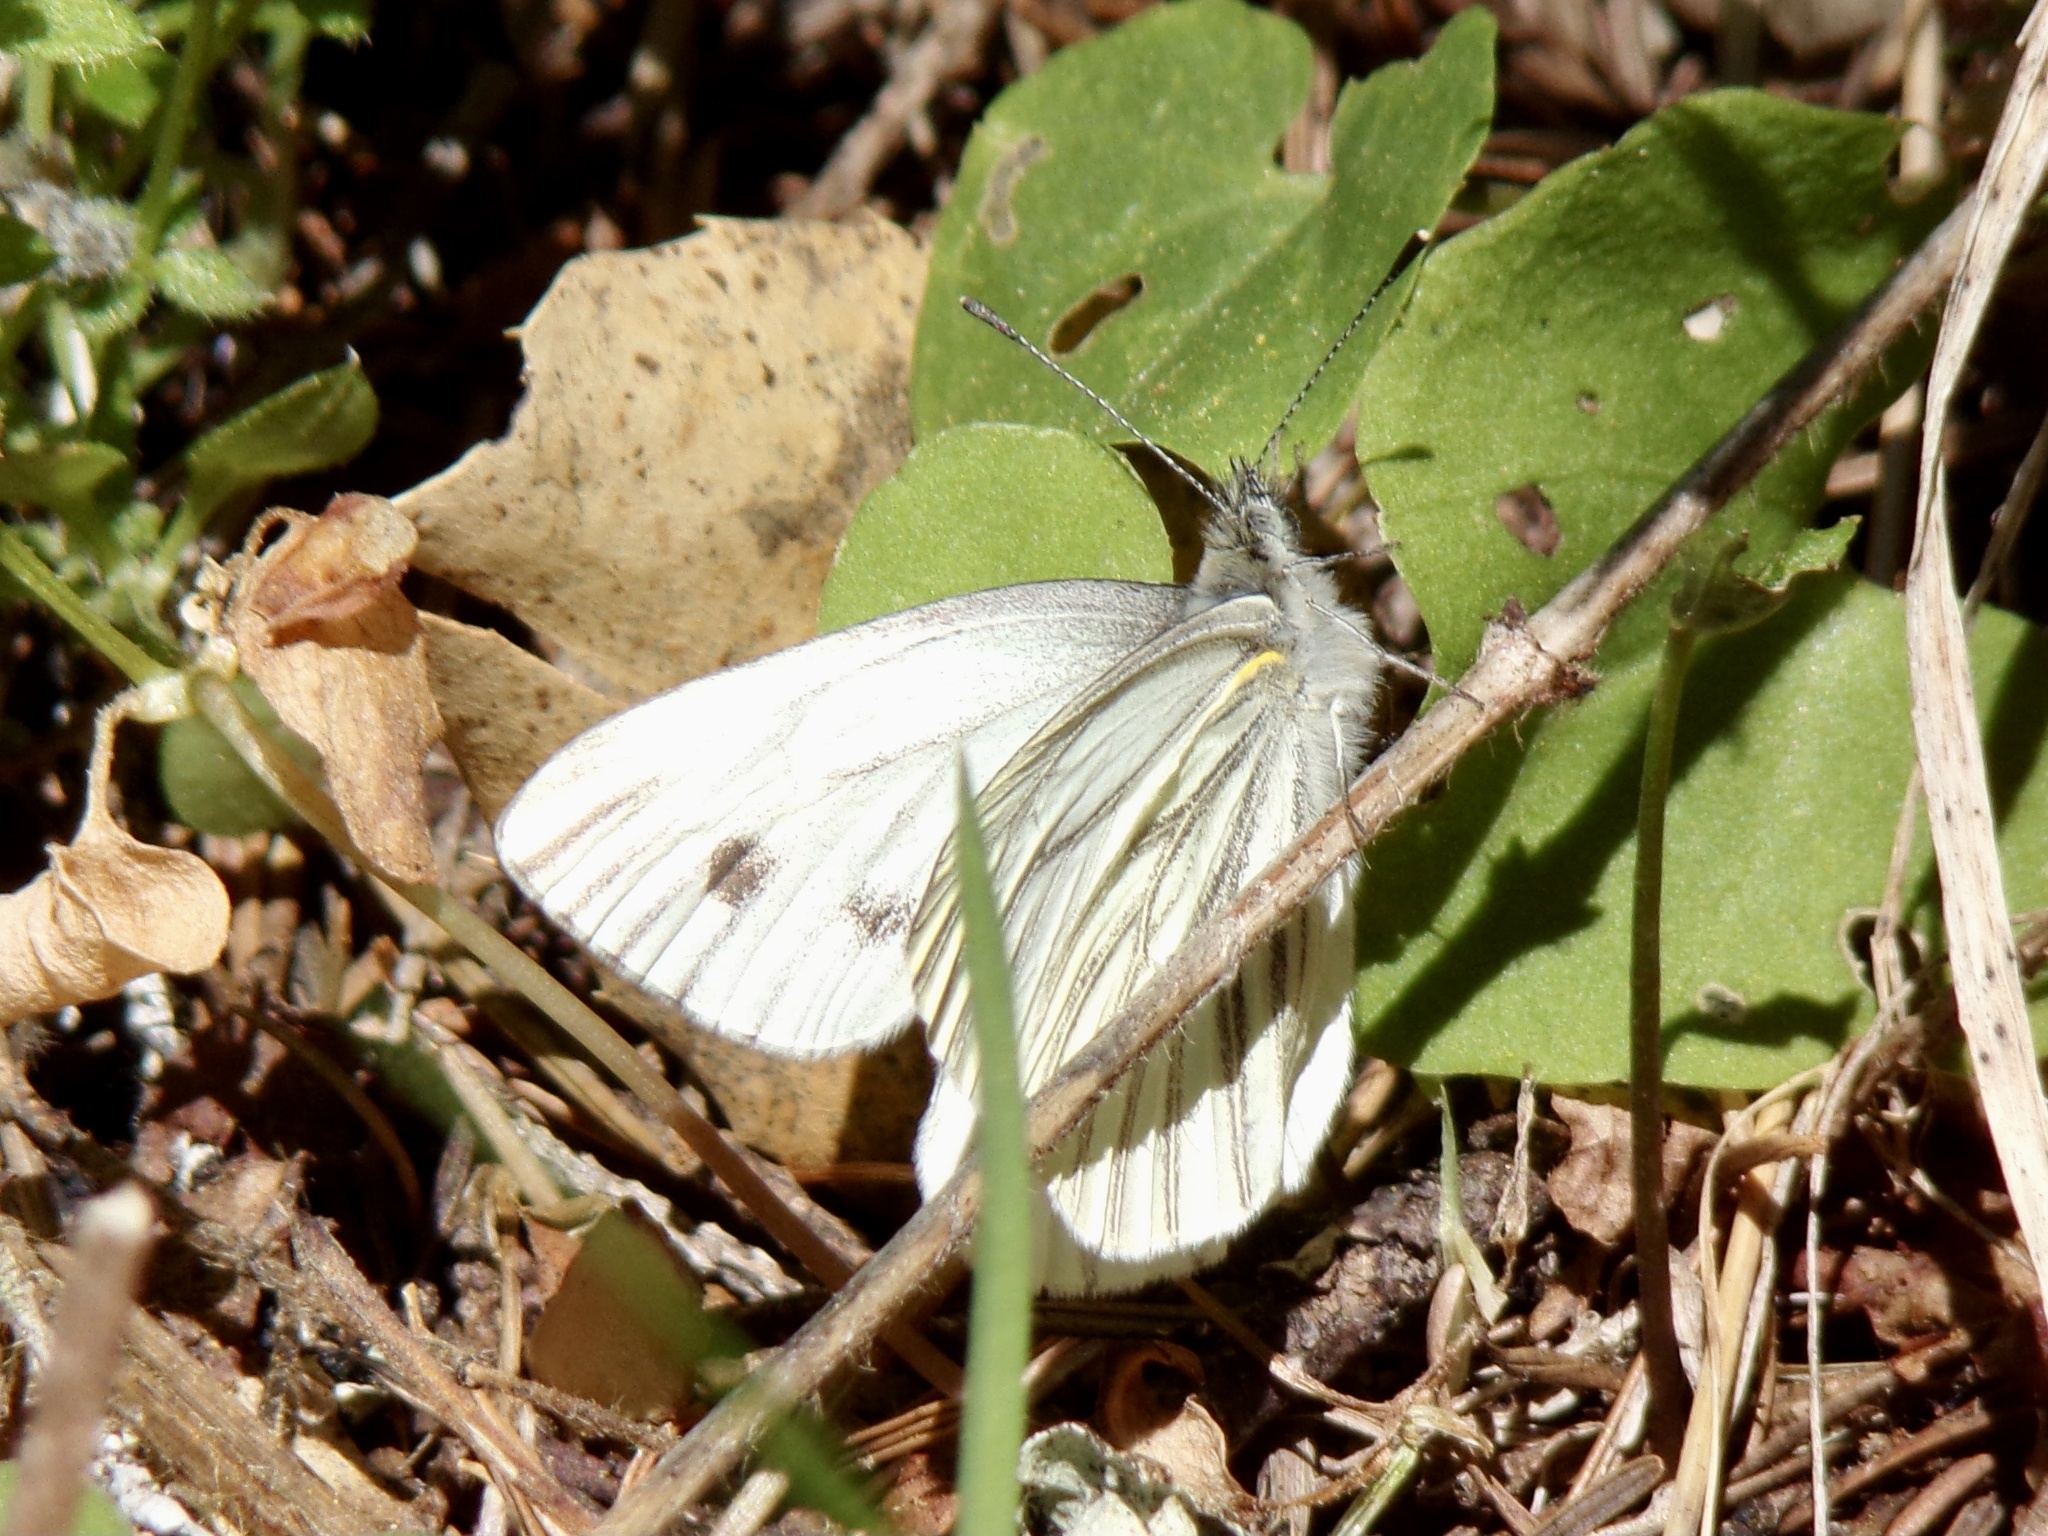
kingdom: Animalia
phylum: Arthropoda
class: Insecta
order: Lepidoptera
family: Pieridae
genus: Pieris
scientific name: Pieris marginalis
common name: Margined white
